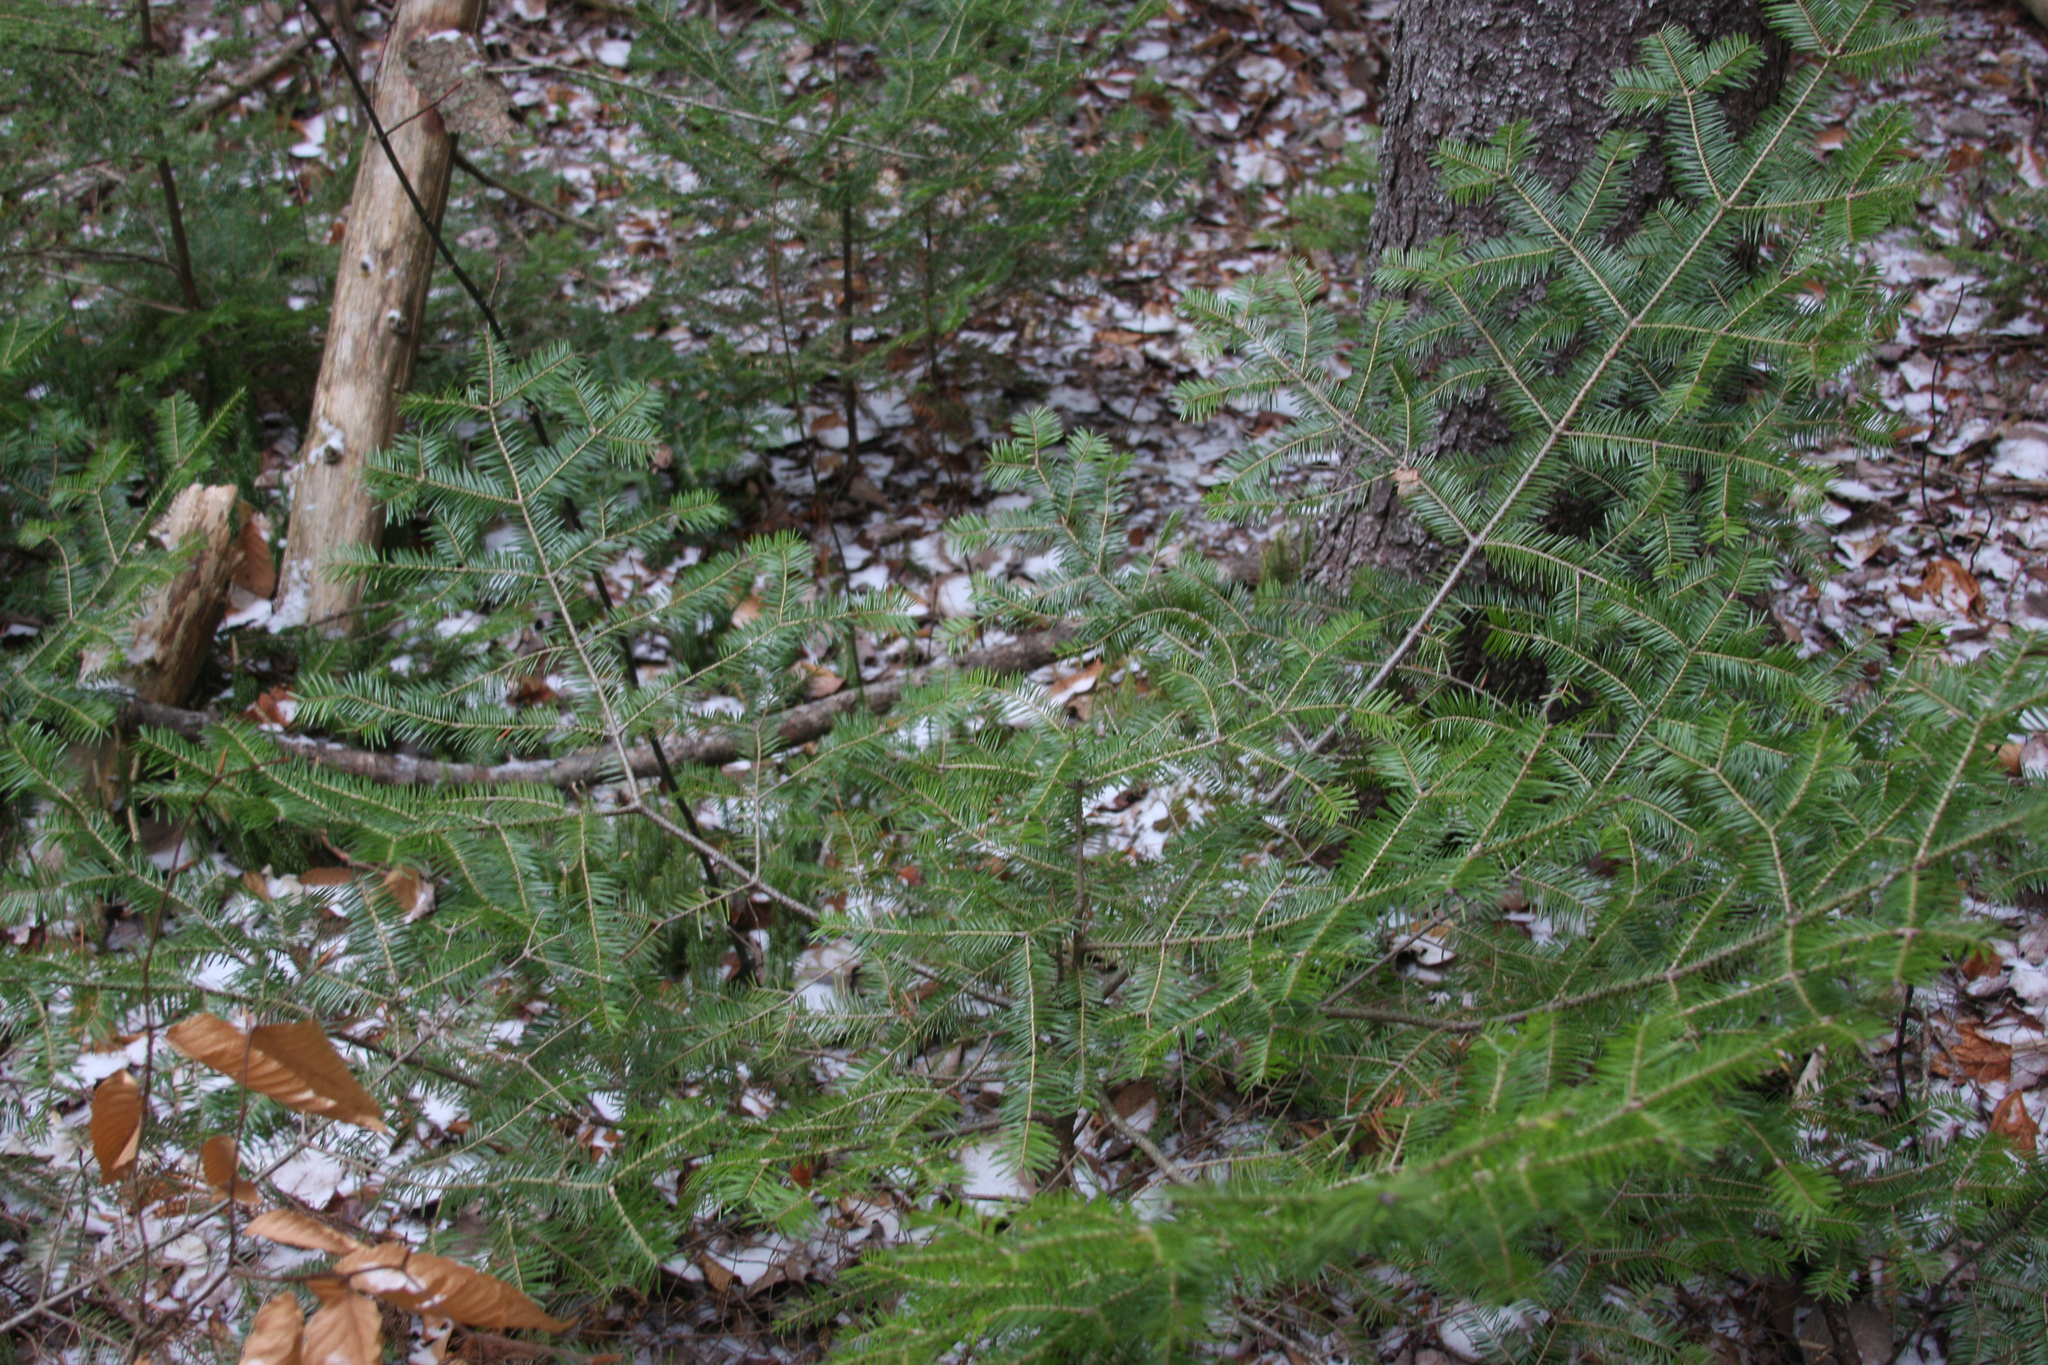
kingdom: Plantae
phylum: Tracheophyta
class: Pinopsida
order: Pinales
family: Pinaceae
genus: Abies
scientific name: Abies balsamea
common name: Balsam fir
